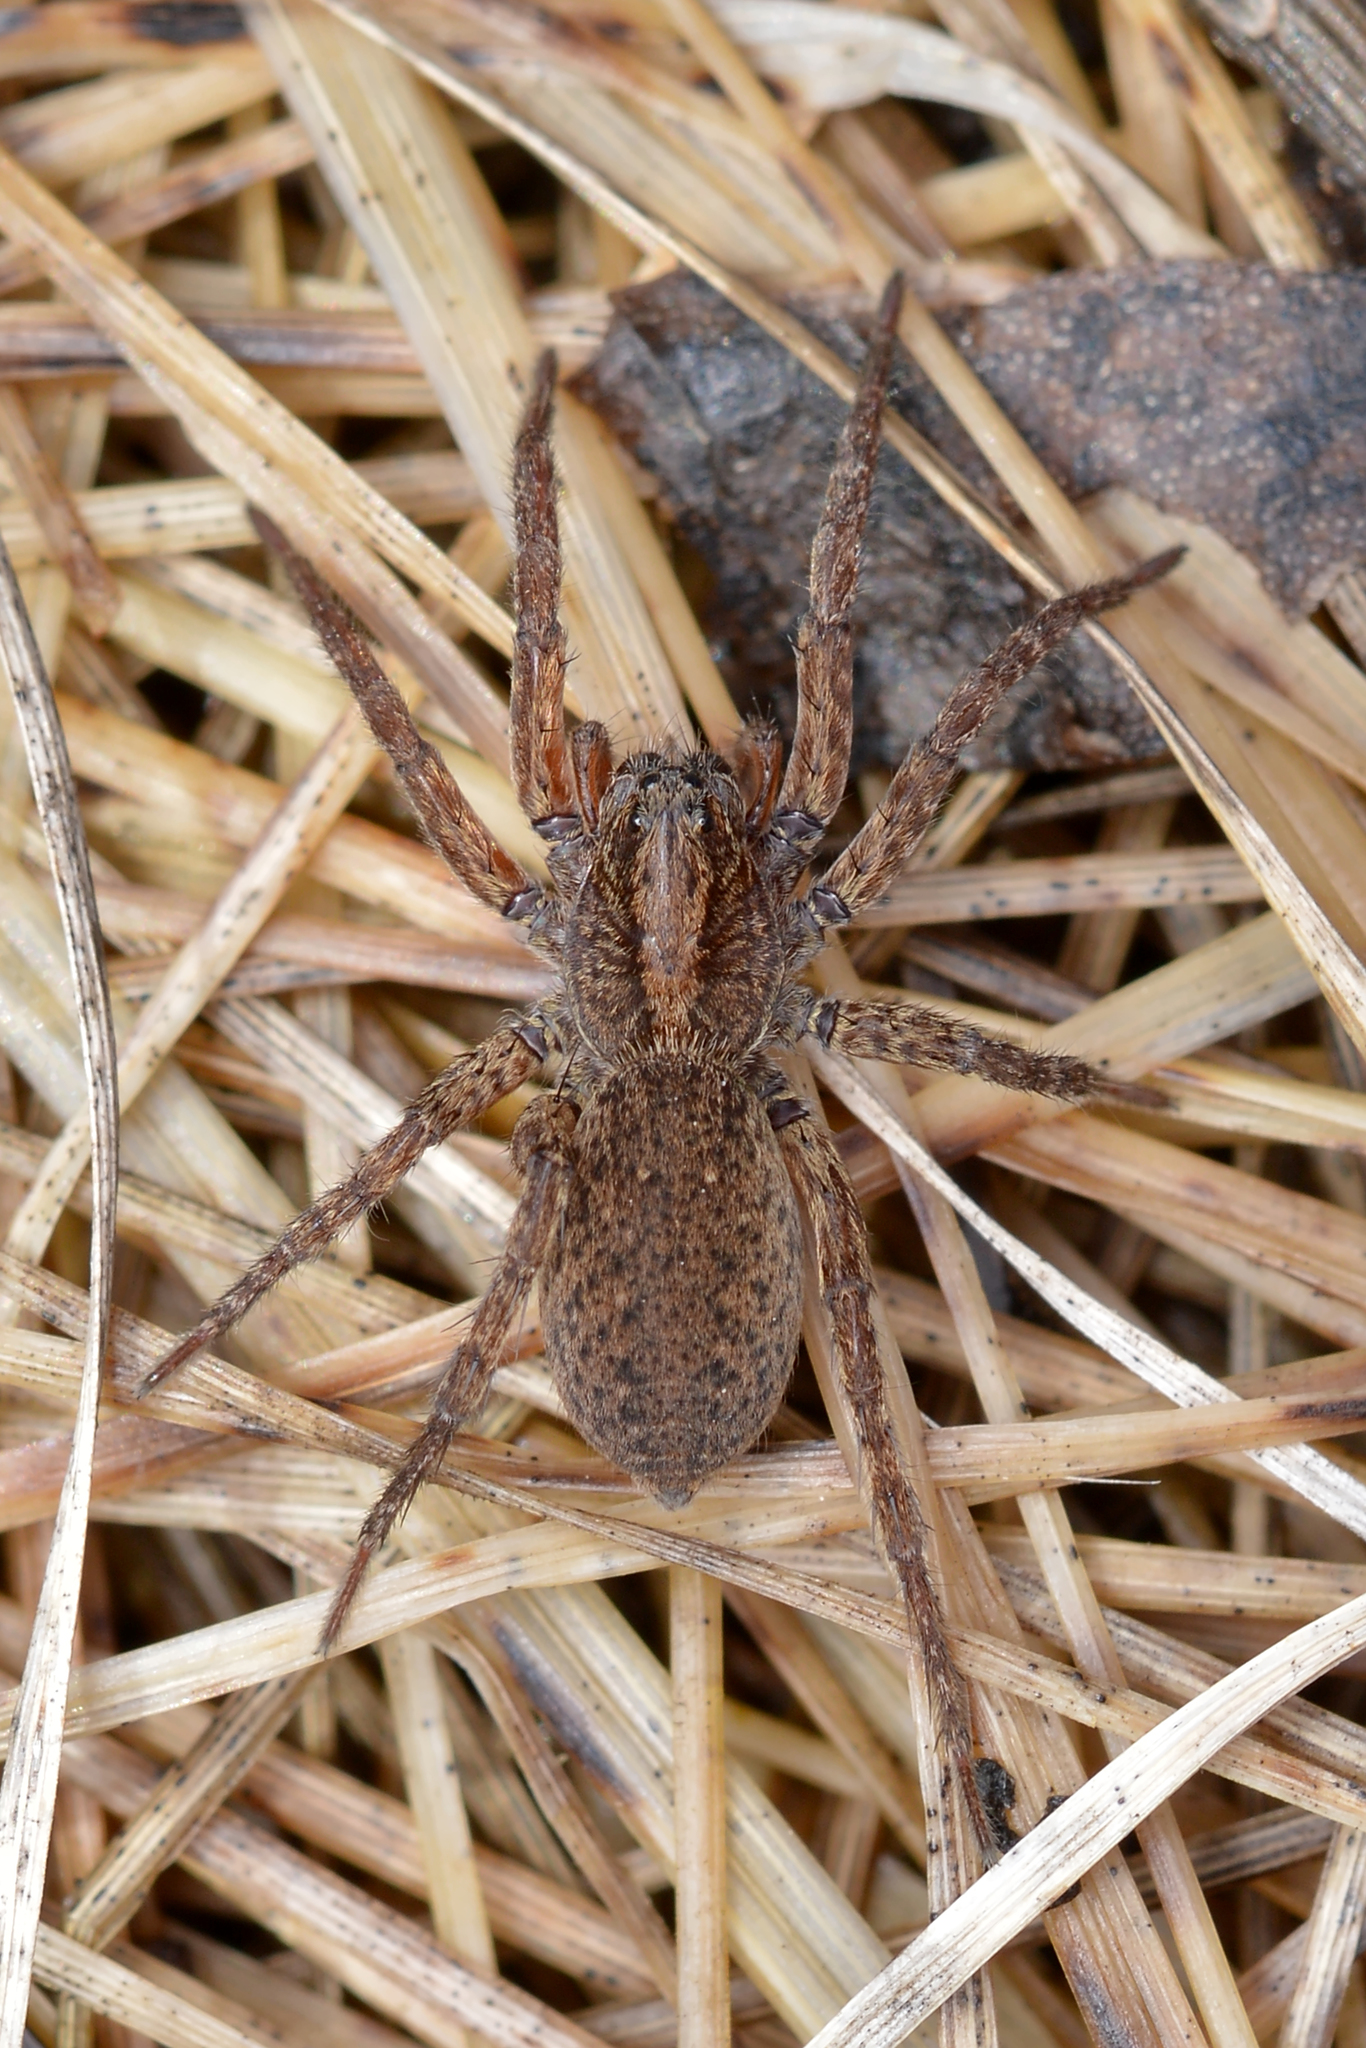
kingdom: Animalia
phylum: Arthropoda
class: Arachnida
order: Araneae
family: Lycosidae
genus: Varacosa
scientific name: Varacosa avara
